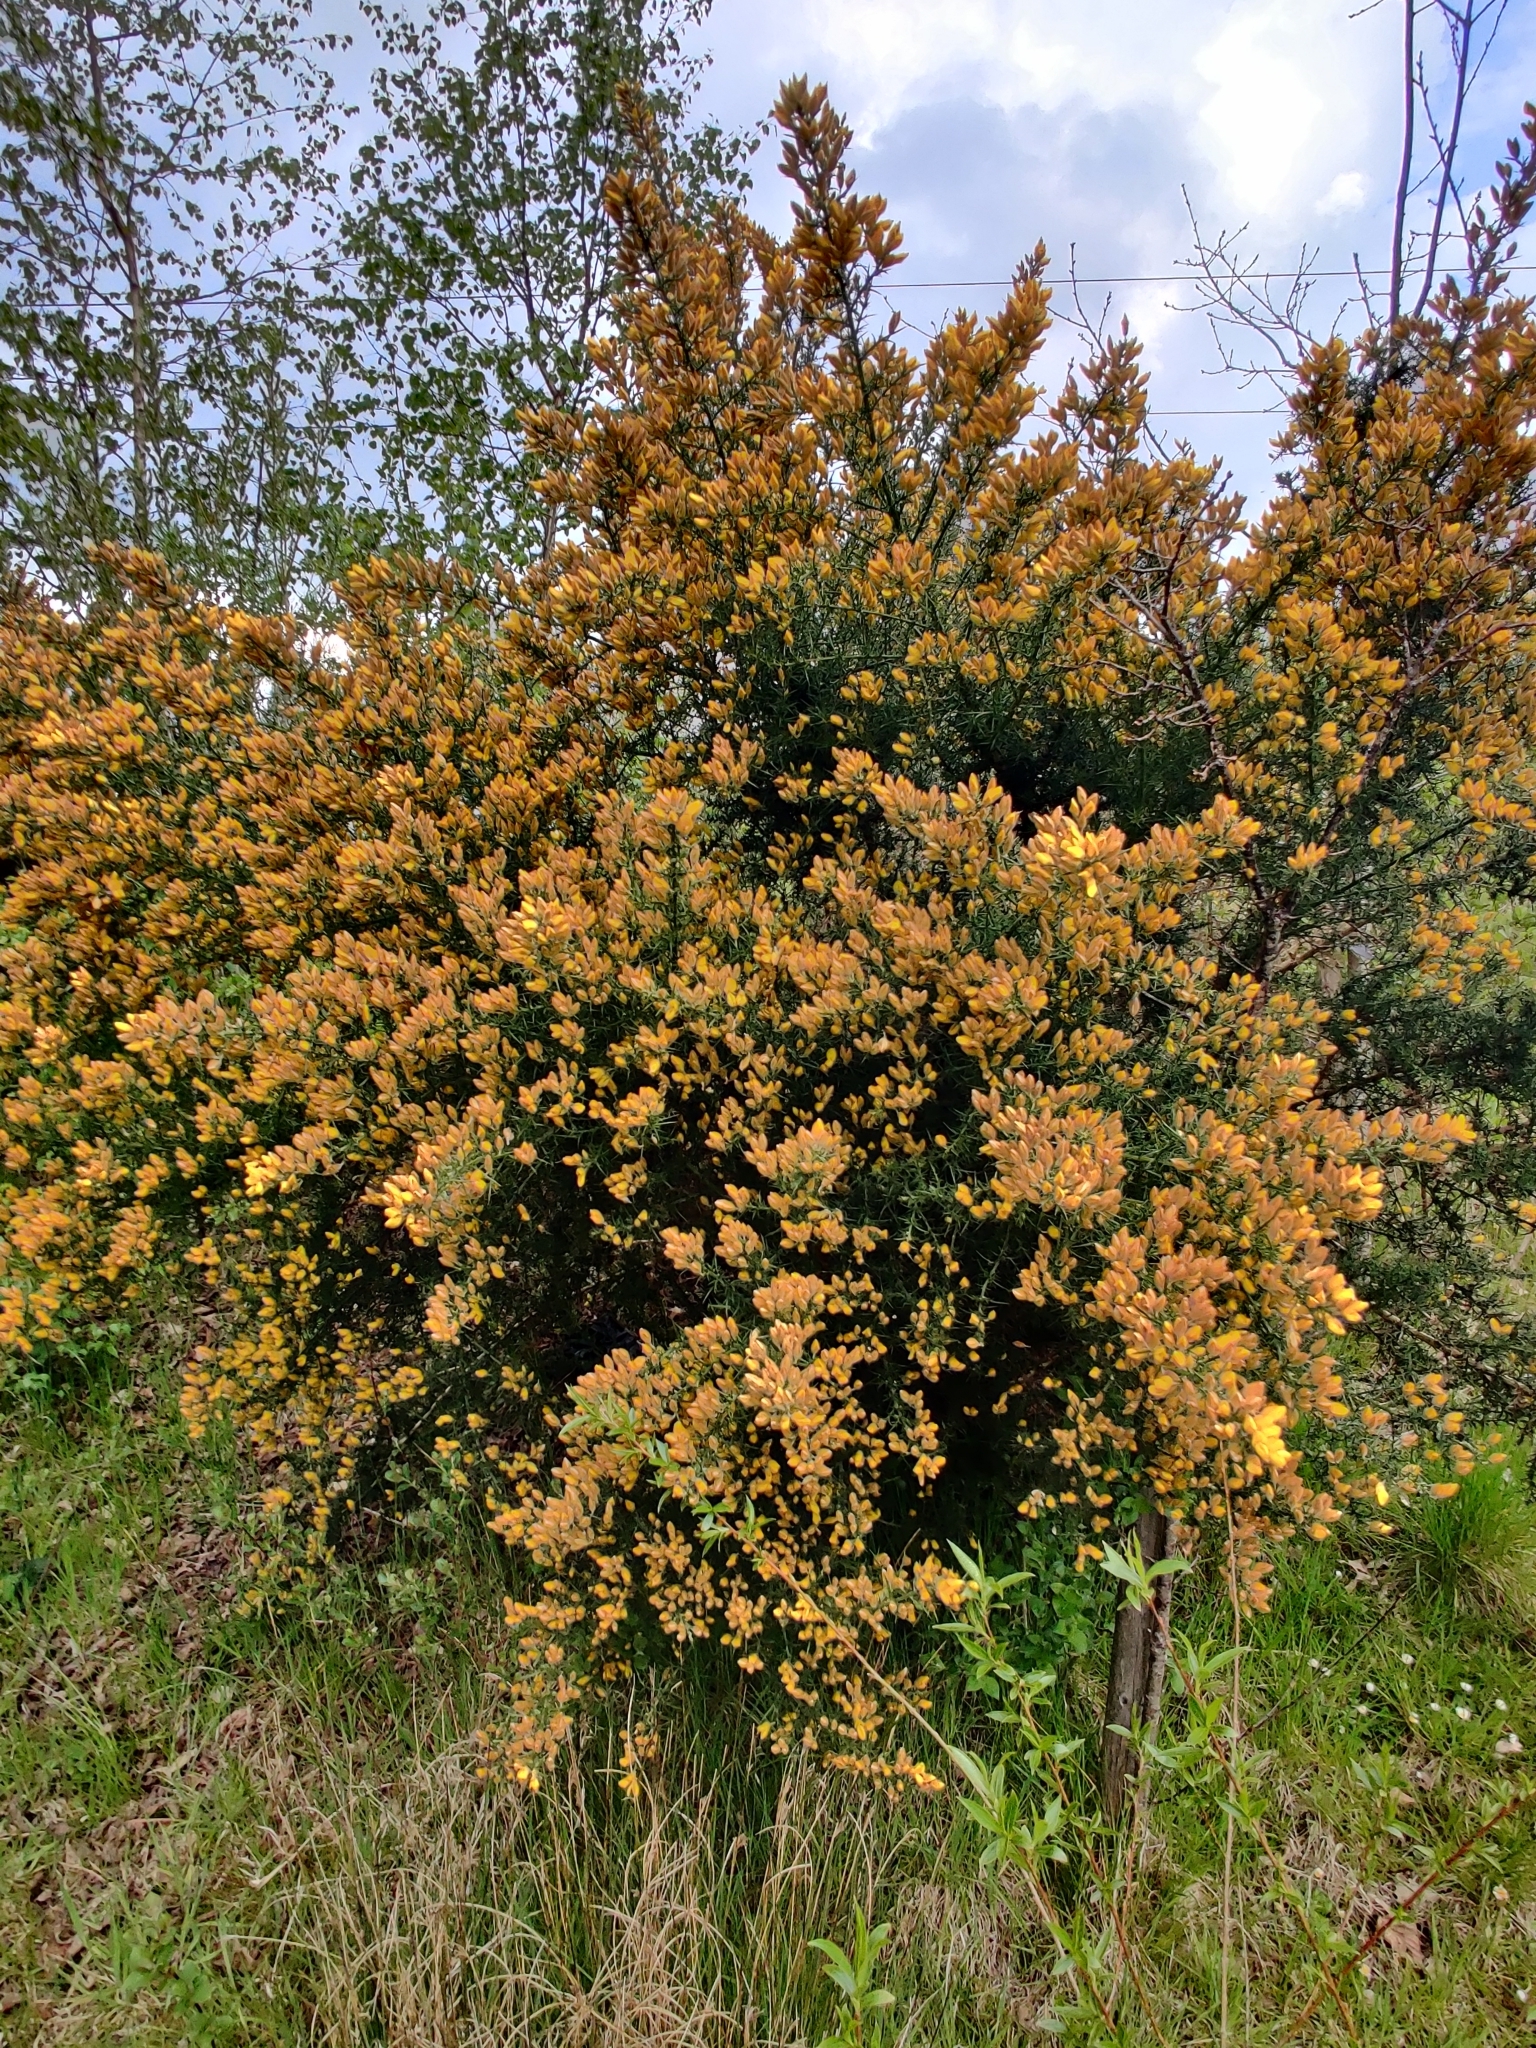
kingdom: Plantae
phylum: Tracheophyta
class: Magnoliopsida
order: Fabales
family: Fabaceae
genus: Ulex
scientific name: Ulex europaeus
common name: Common gorse
